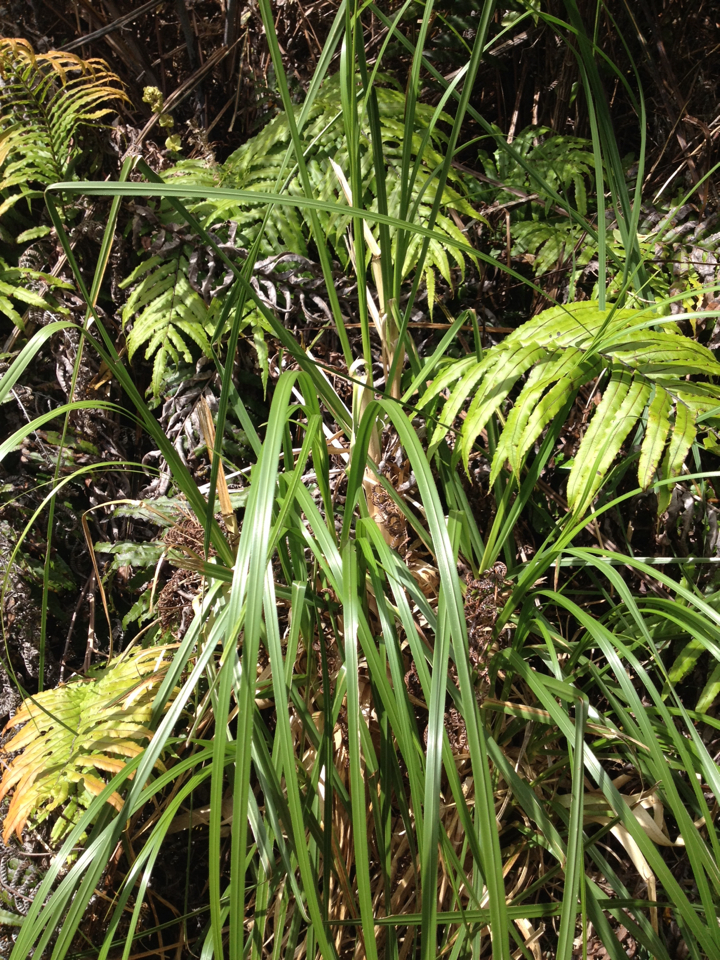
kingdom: Plantae
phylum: Tracheophyta
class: Liliopsida
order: Poales
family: Poaceae
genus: Cortaderia
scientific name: Cortaderia jubata
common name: Purple pampas grass
